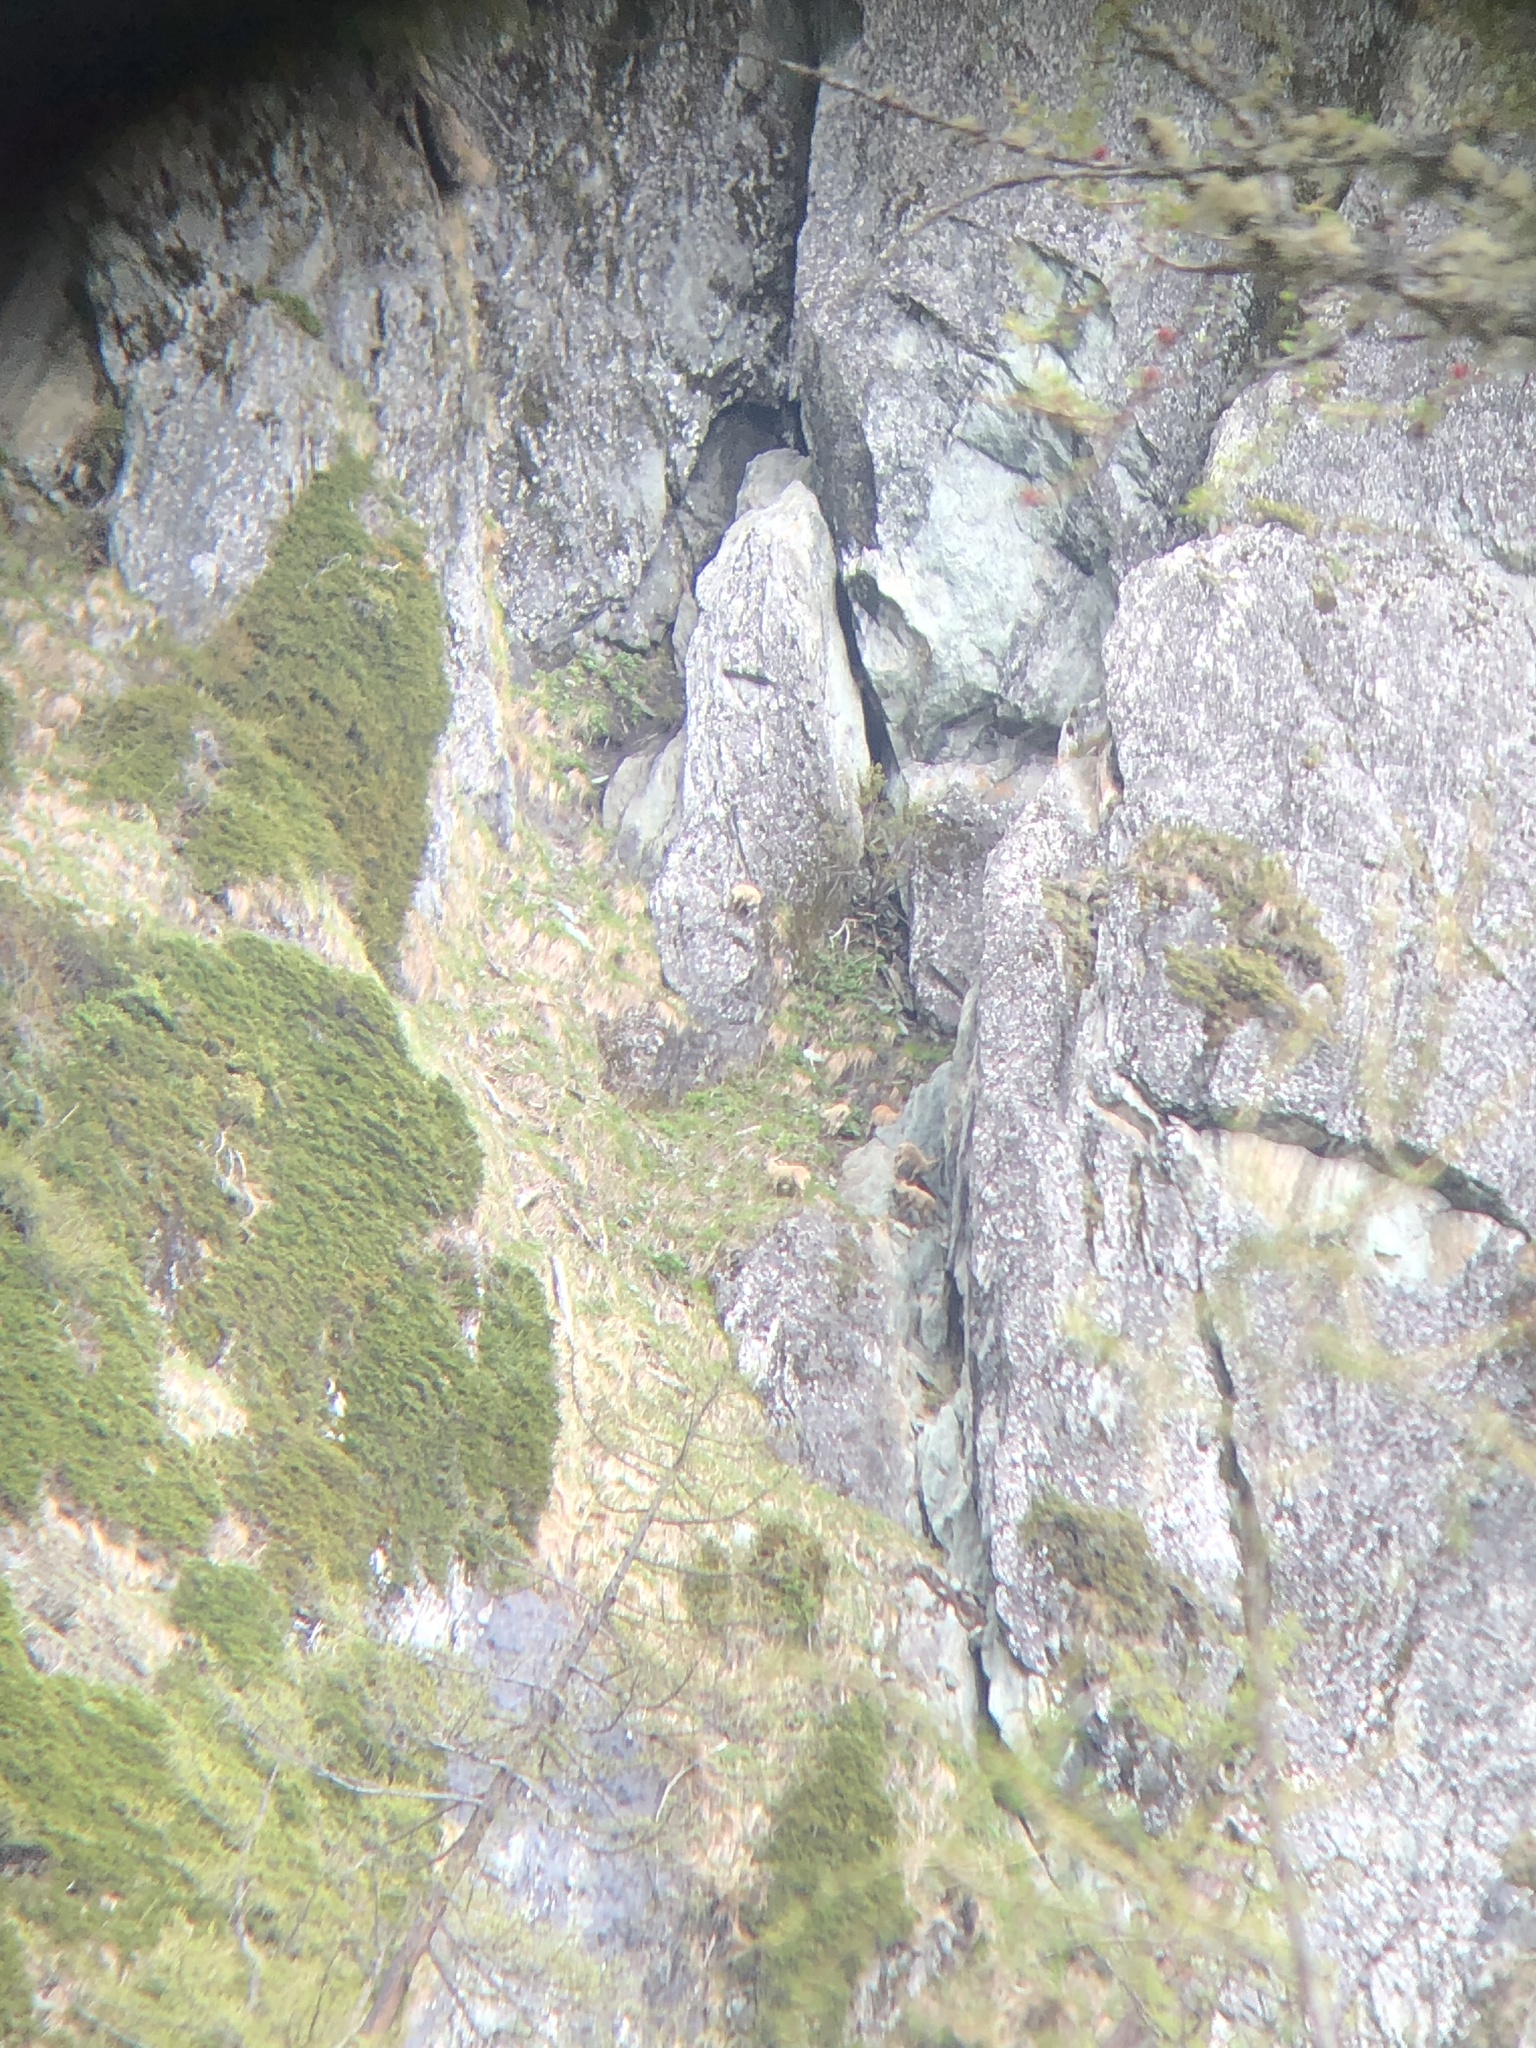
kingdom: Animalia
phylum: Chordata
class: Mammalia
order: Artiodactyla
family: Bovidae
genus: Capra
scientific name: Capra ibex
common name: Alpine ibex
